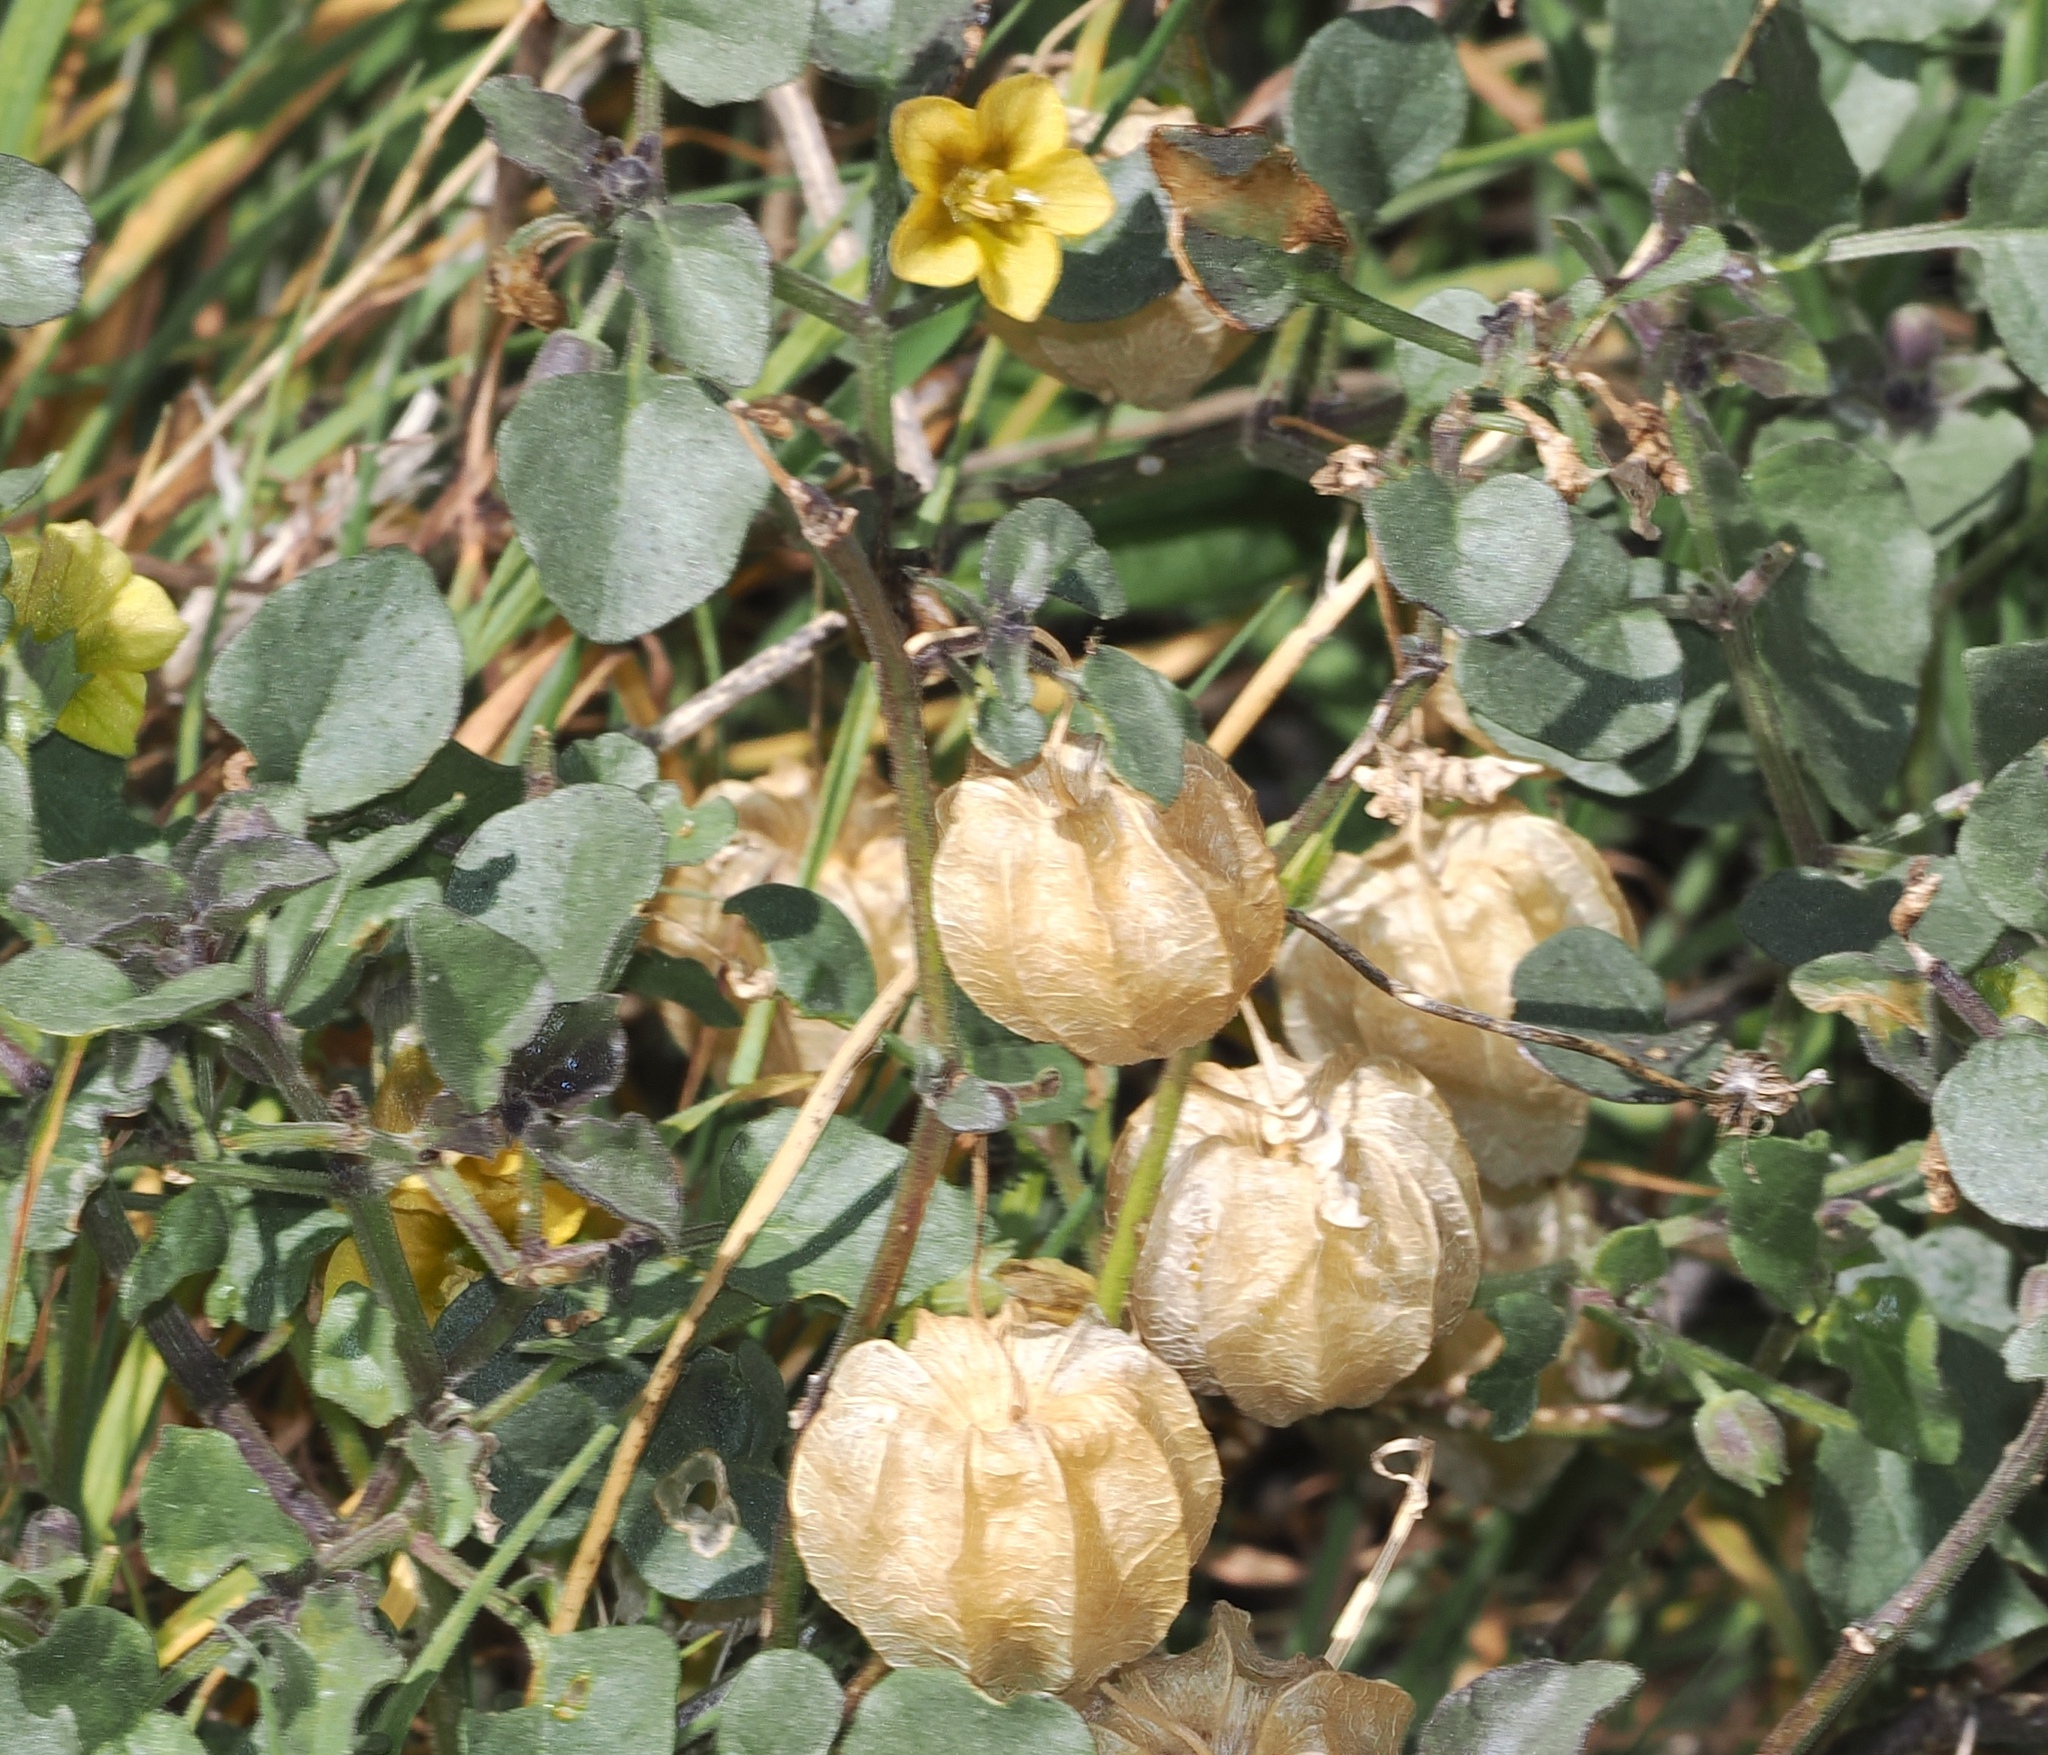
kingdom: Plantae
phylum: Tracheophyta
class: Magnoliopsida
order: Solanales
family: Solanaceae
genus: Physalis
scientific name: Physalis crassifolia
